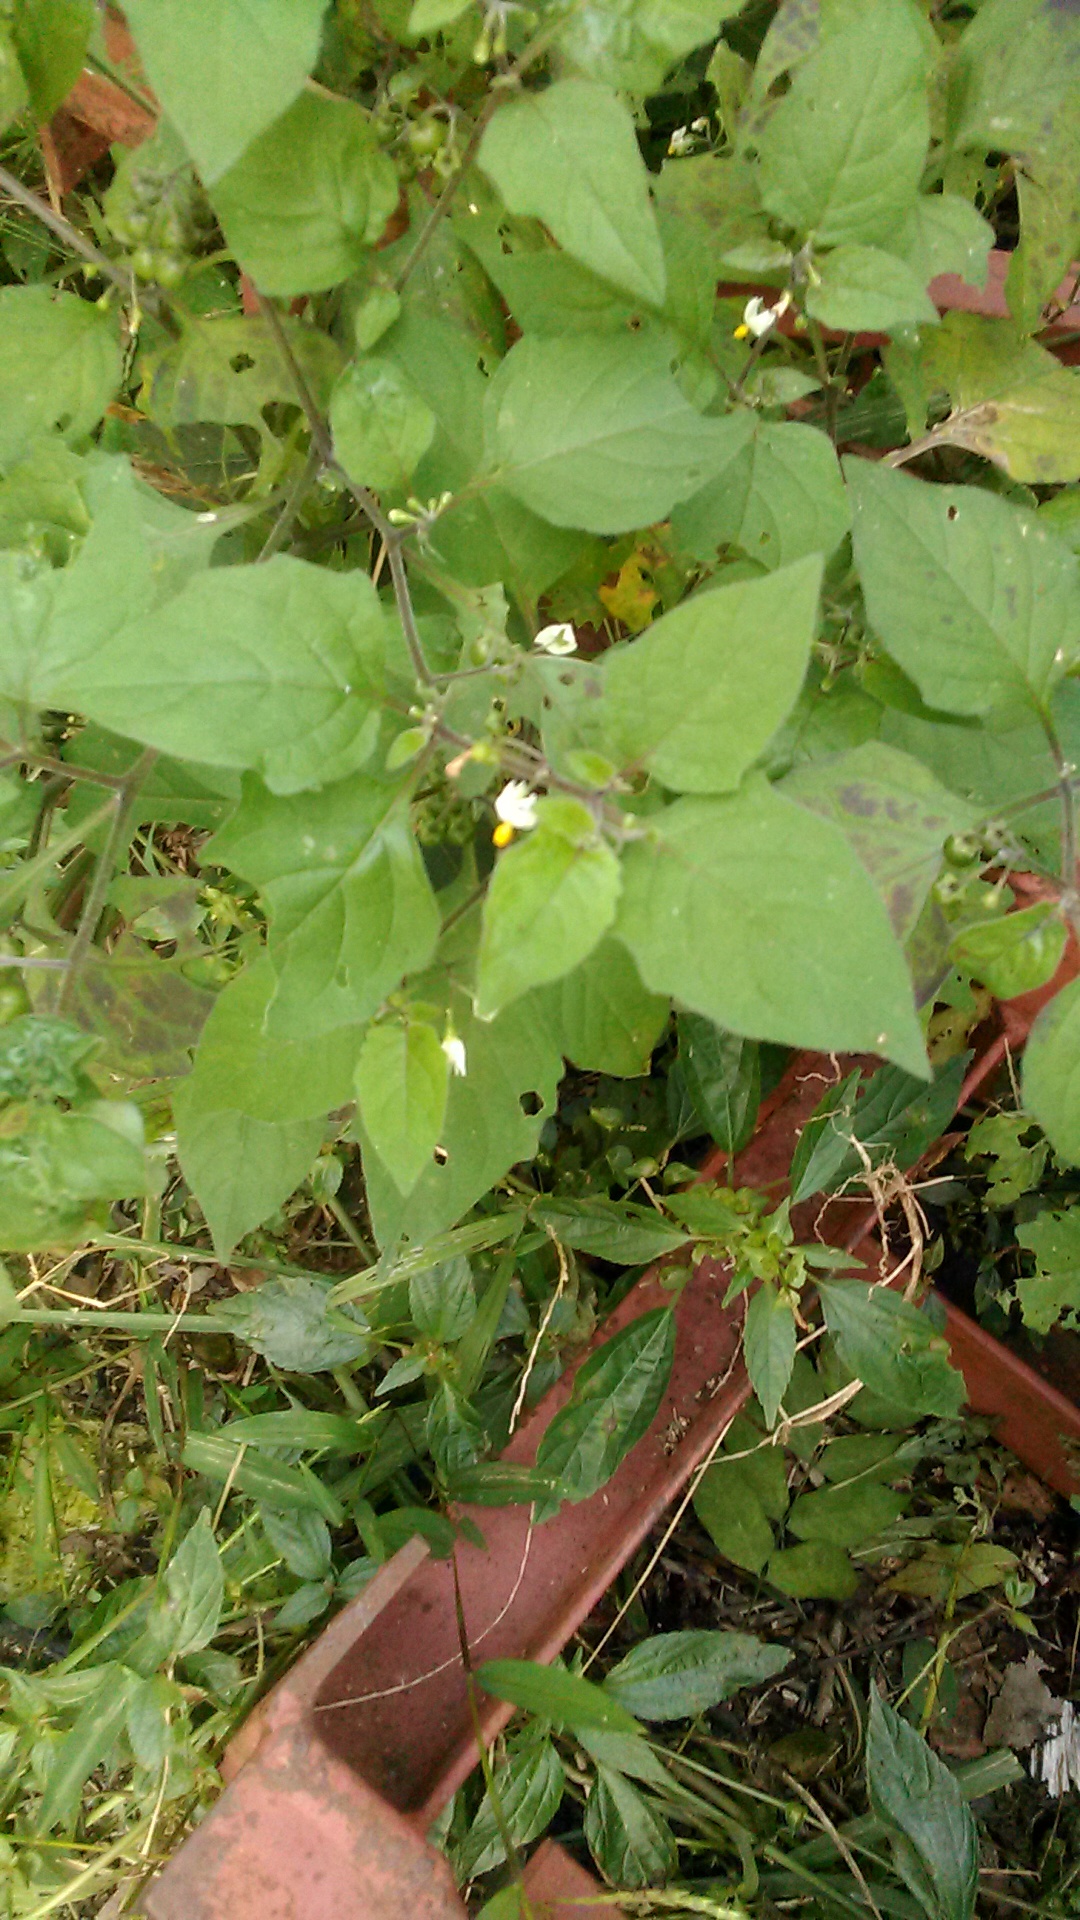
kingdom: Plantae
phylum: Tracheophyta
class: Magnoliopsida
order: Solanales
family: Solanaceae
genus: Solanum
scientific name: Solanum nigrum
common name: Black nightshade
